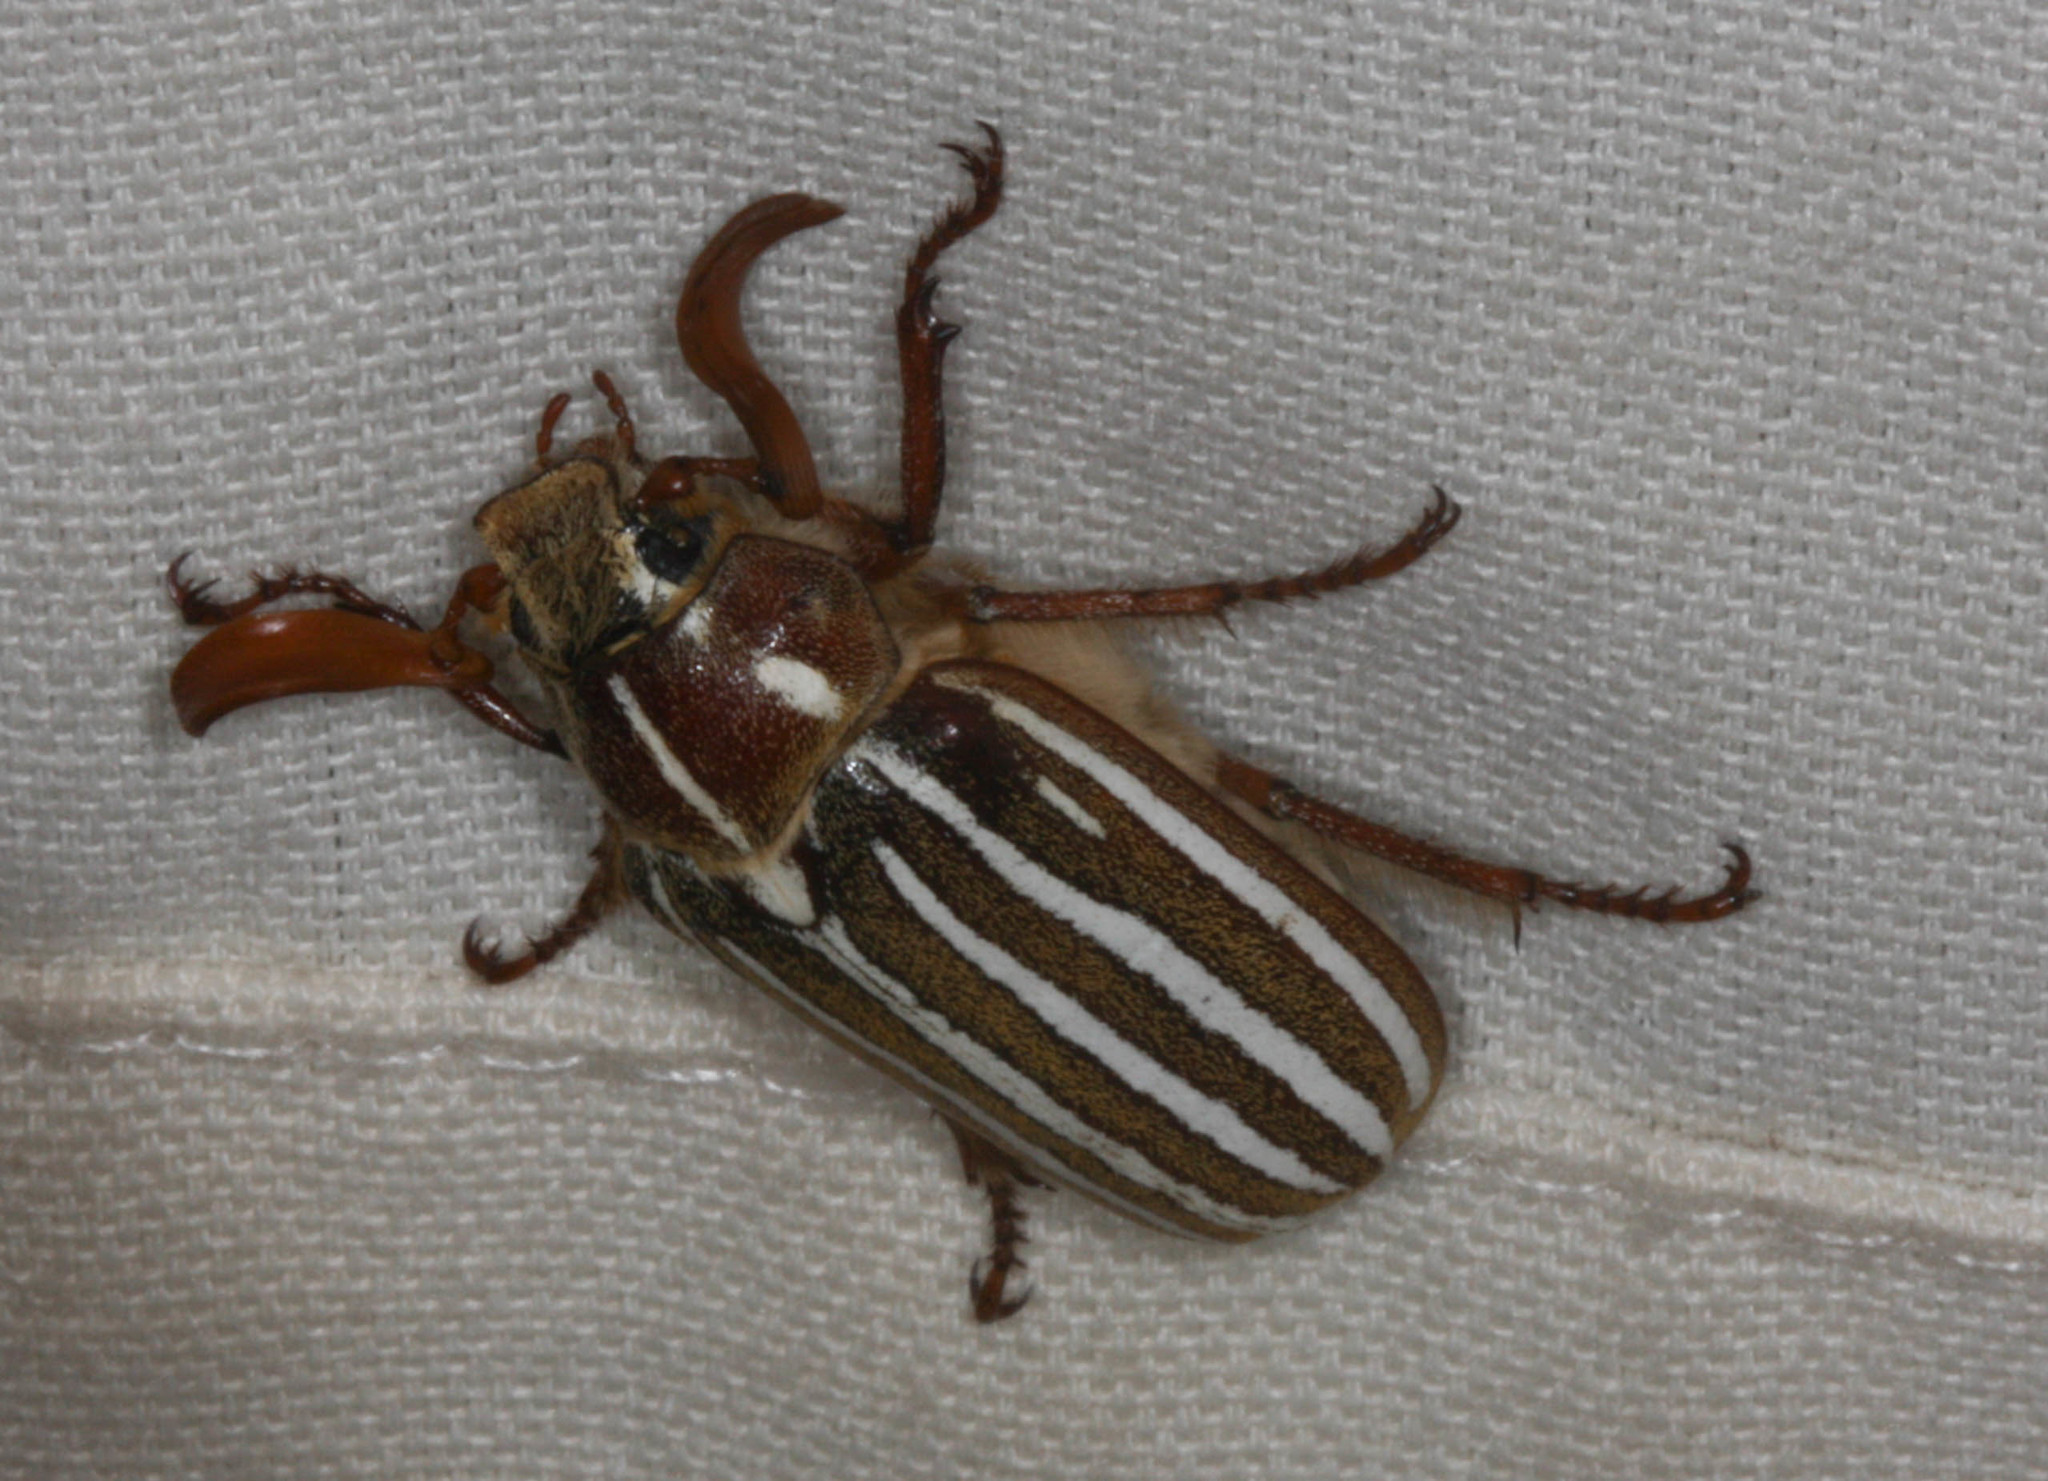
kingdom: Animalia
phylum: Arthropoda
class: Insecta
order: Coleoptera
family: Scarabaeidae
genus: Polyphylla
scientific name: Polyphylla decemlineata
